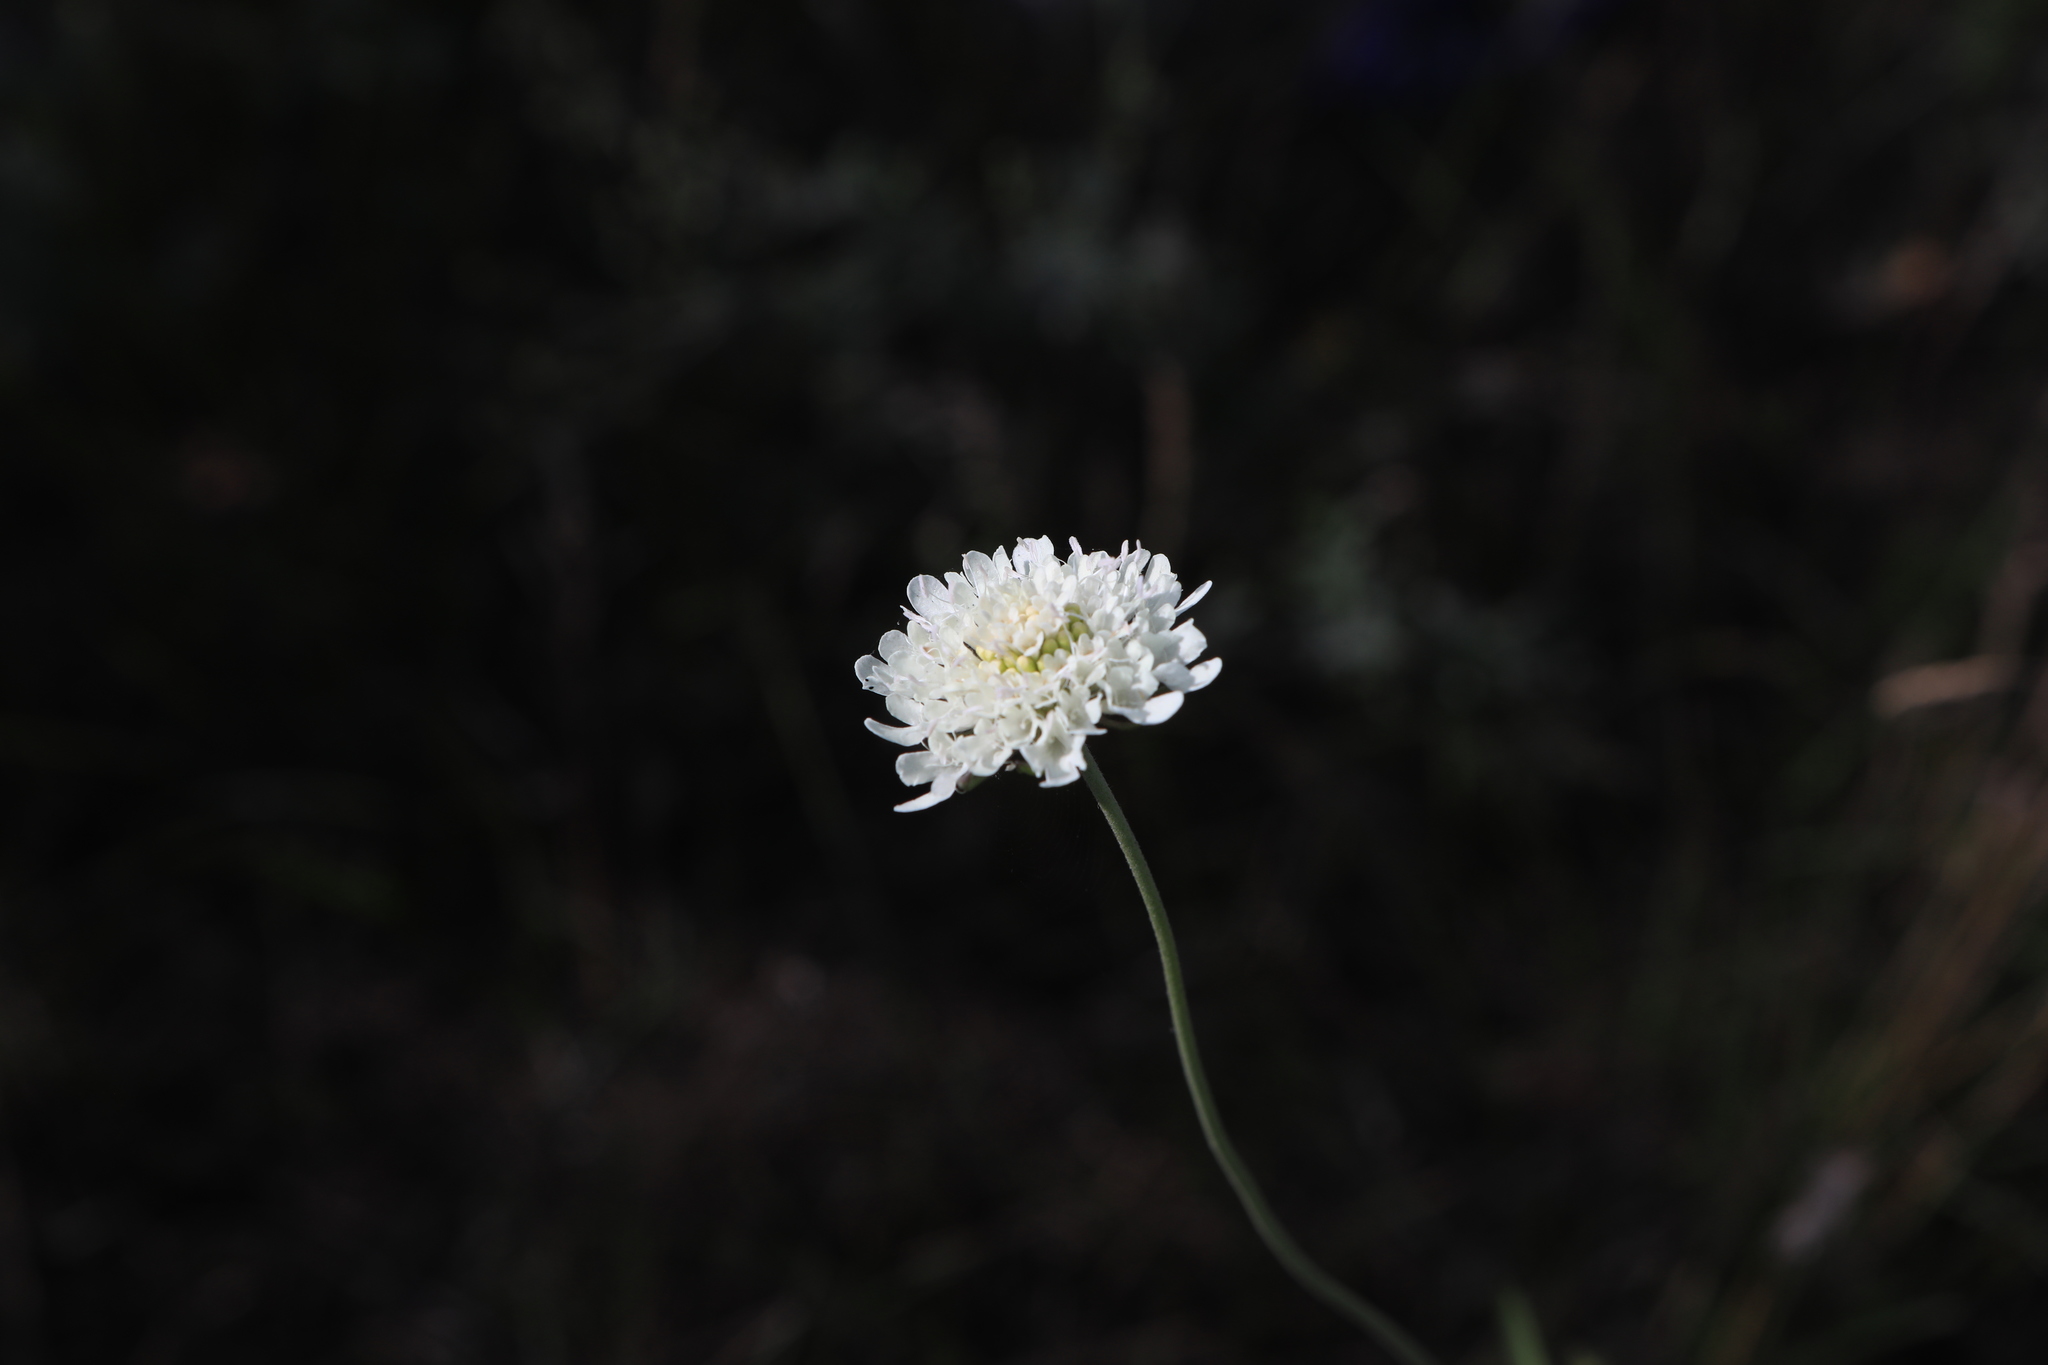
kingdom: Plantae
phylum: Tracheophyta
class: Magnoliopsida
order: Dipsacales
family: Caprifoliaceae
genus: Scabiosa
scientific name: Scabiosa ochroleuca
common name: Cream pincushions
